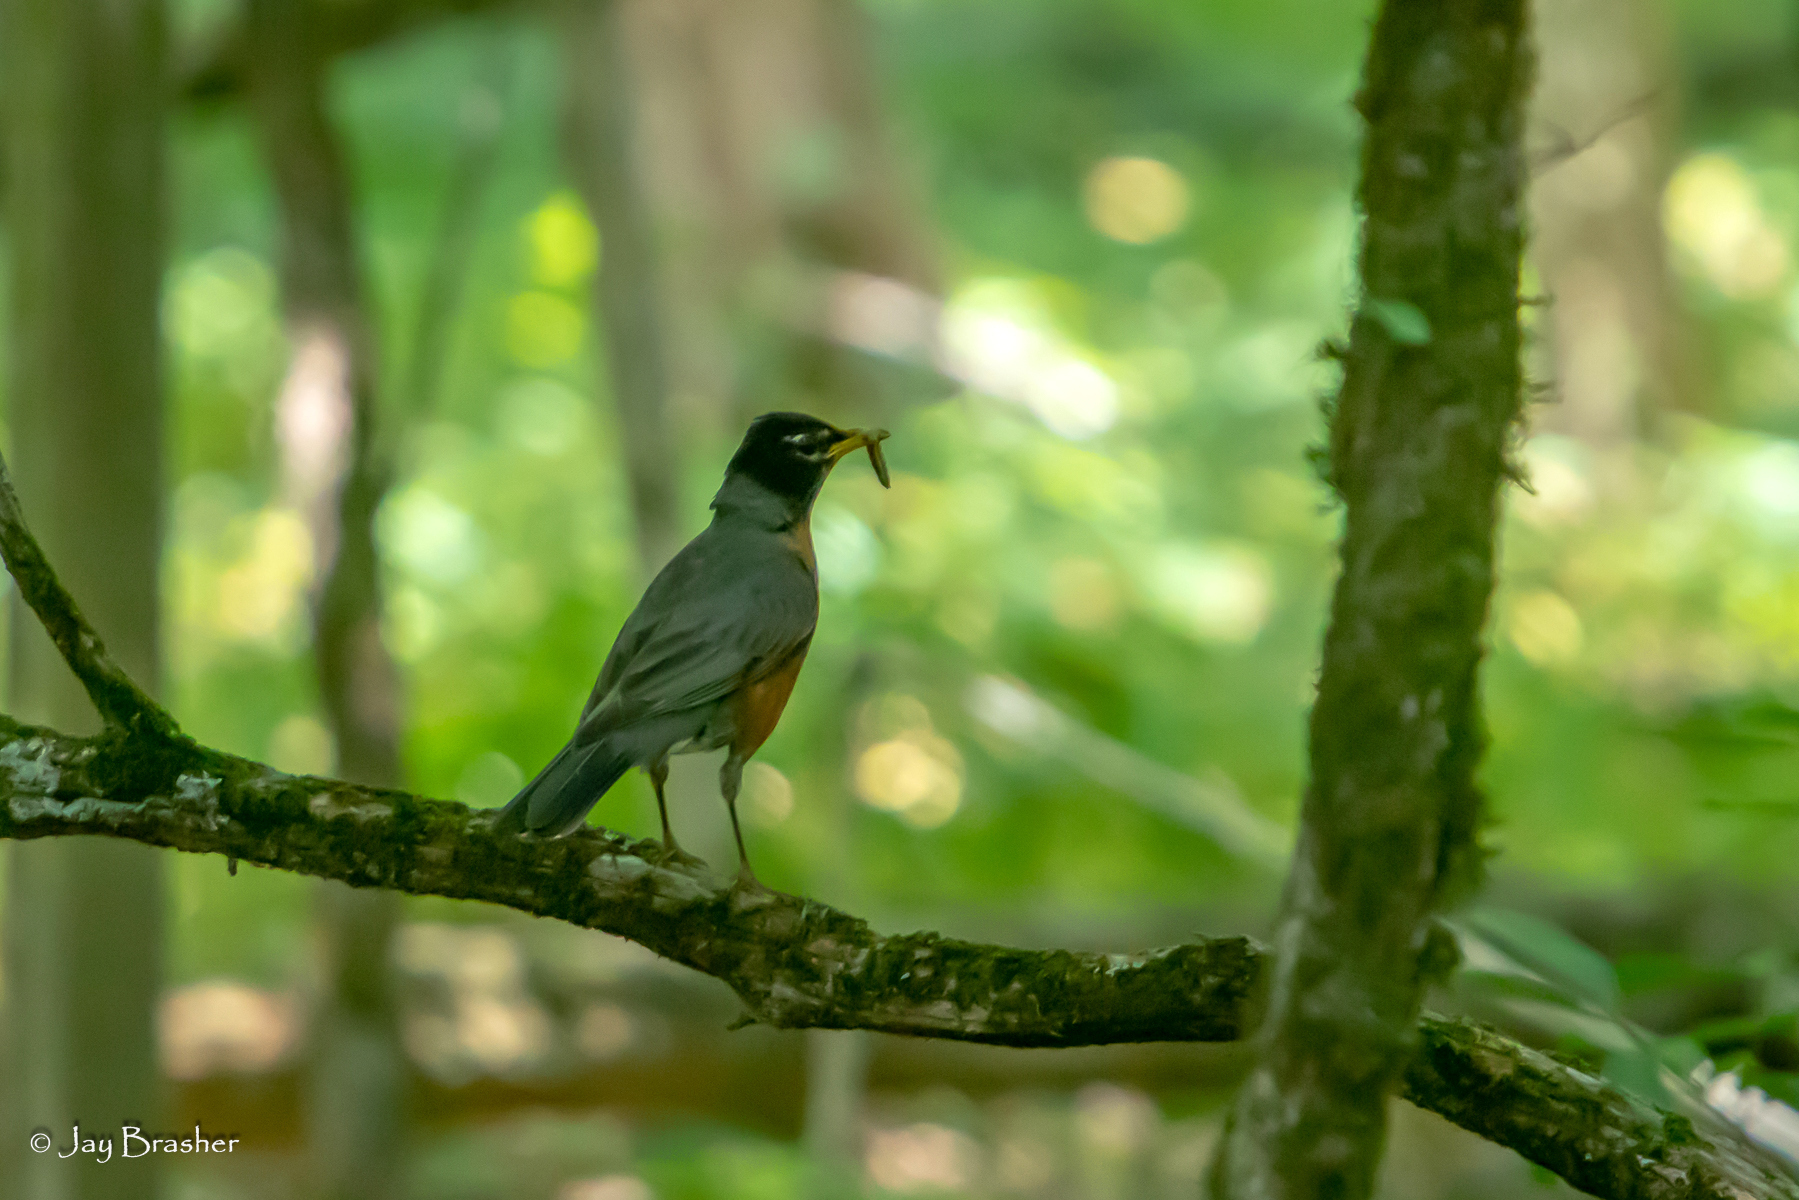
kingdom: Animalia
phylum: Chordata
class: Aves
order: Passeriformes
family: Turdidae
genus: Turdus
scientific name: Turdus migratorius
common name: American robin
